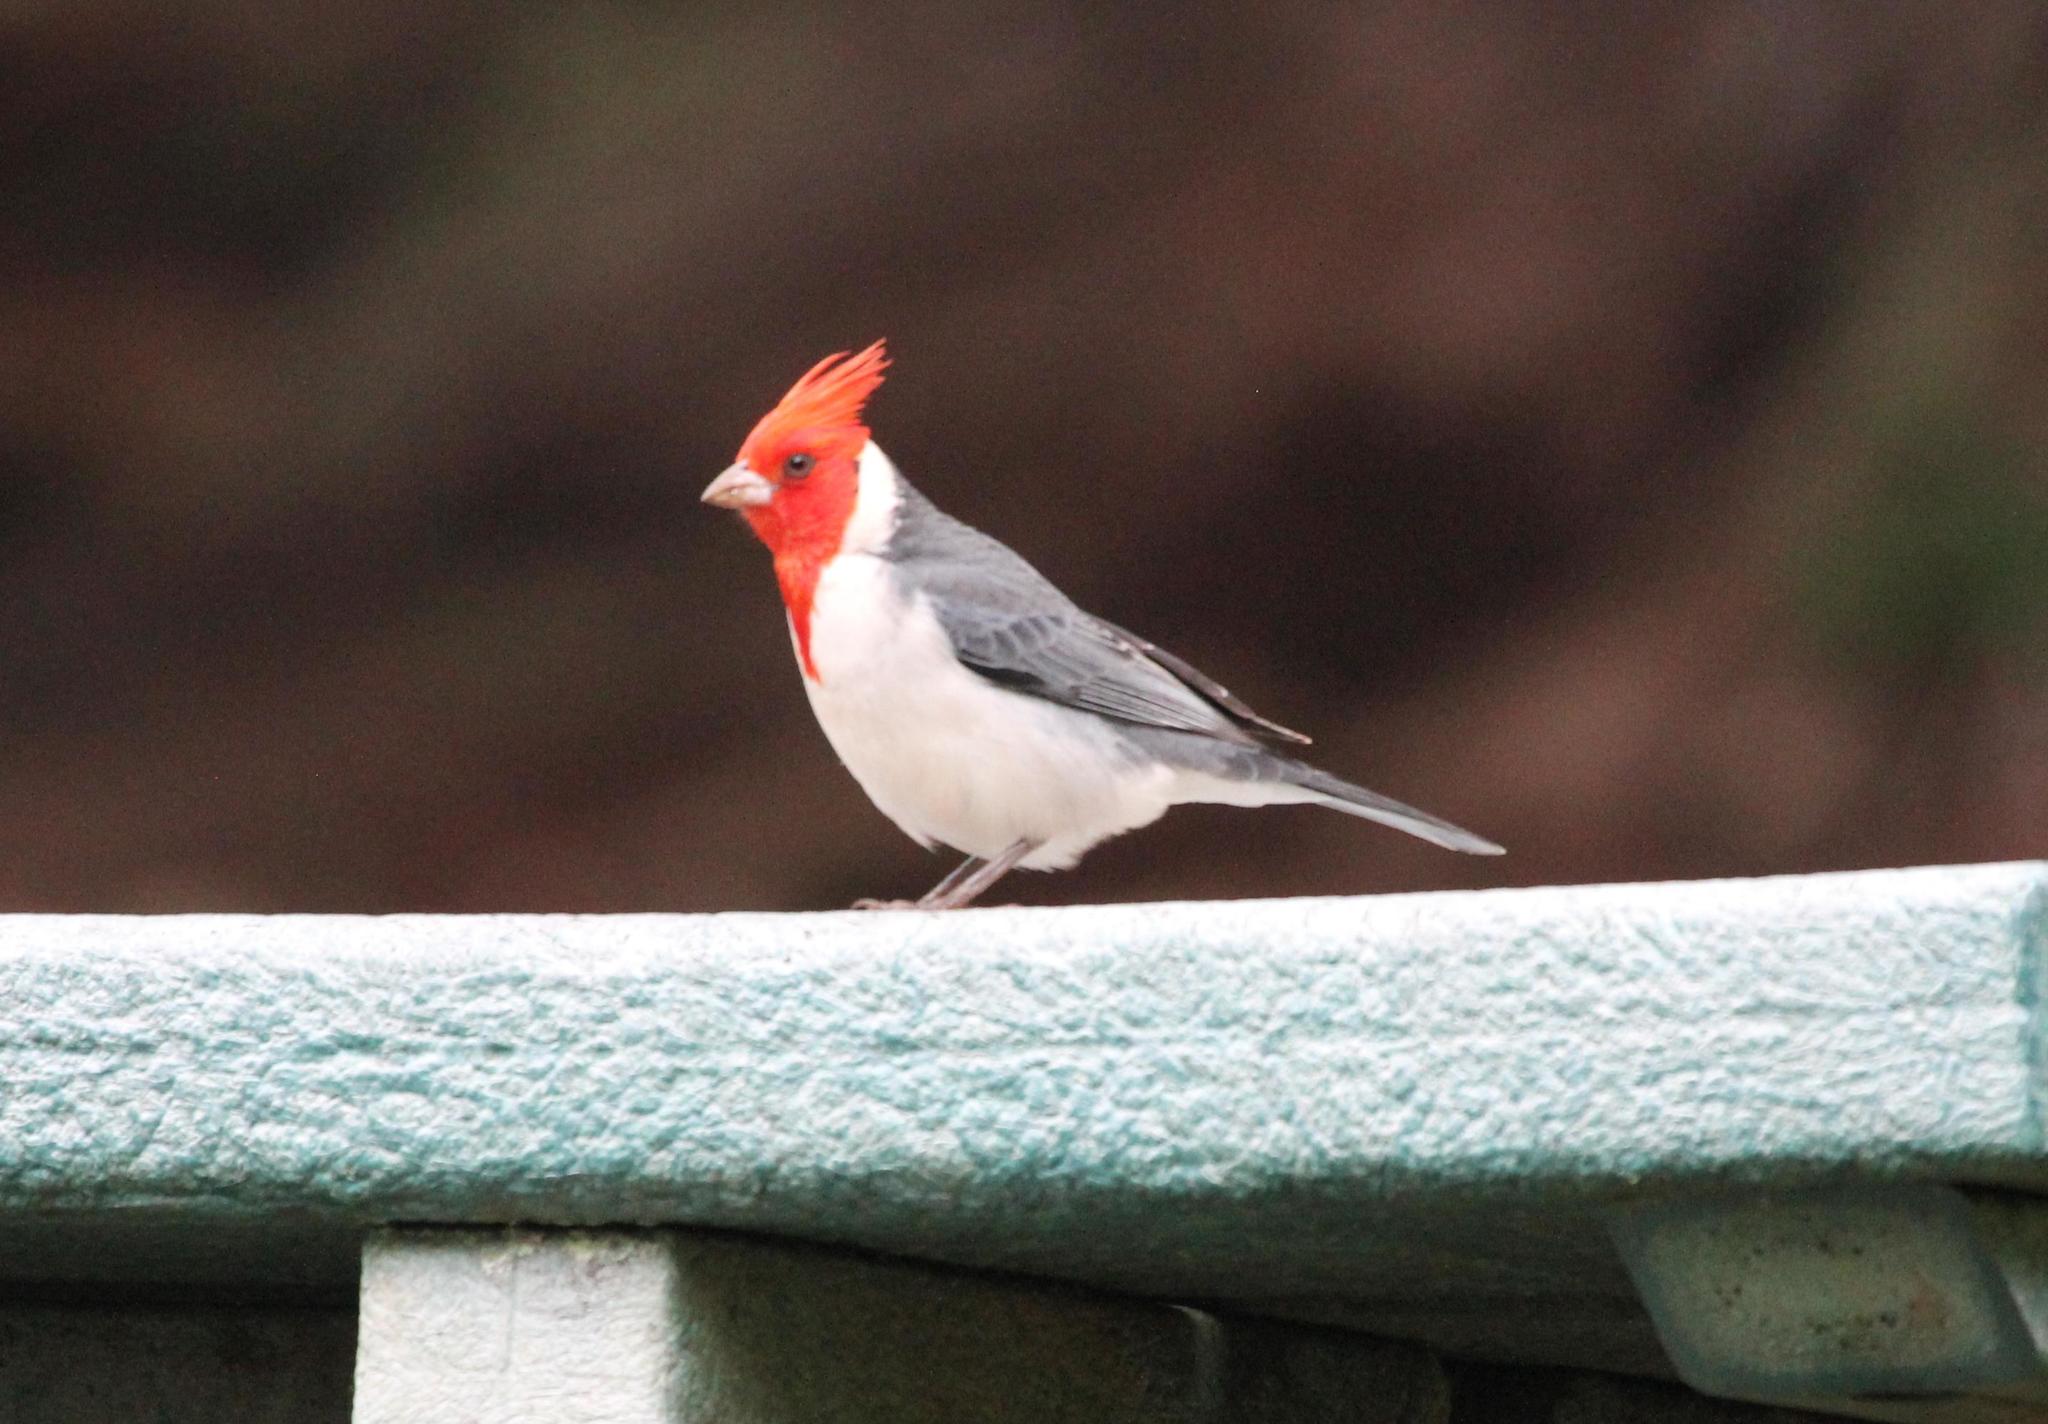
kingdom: Animalia
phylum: Chordata
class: Aves
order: Passeriformes
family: Thraupidae
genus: Paroaria
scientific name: Paroaria coronata
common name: Red-crested cardinal
